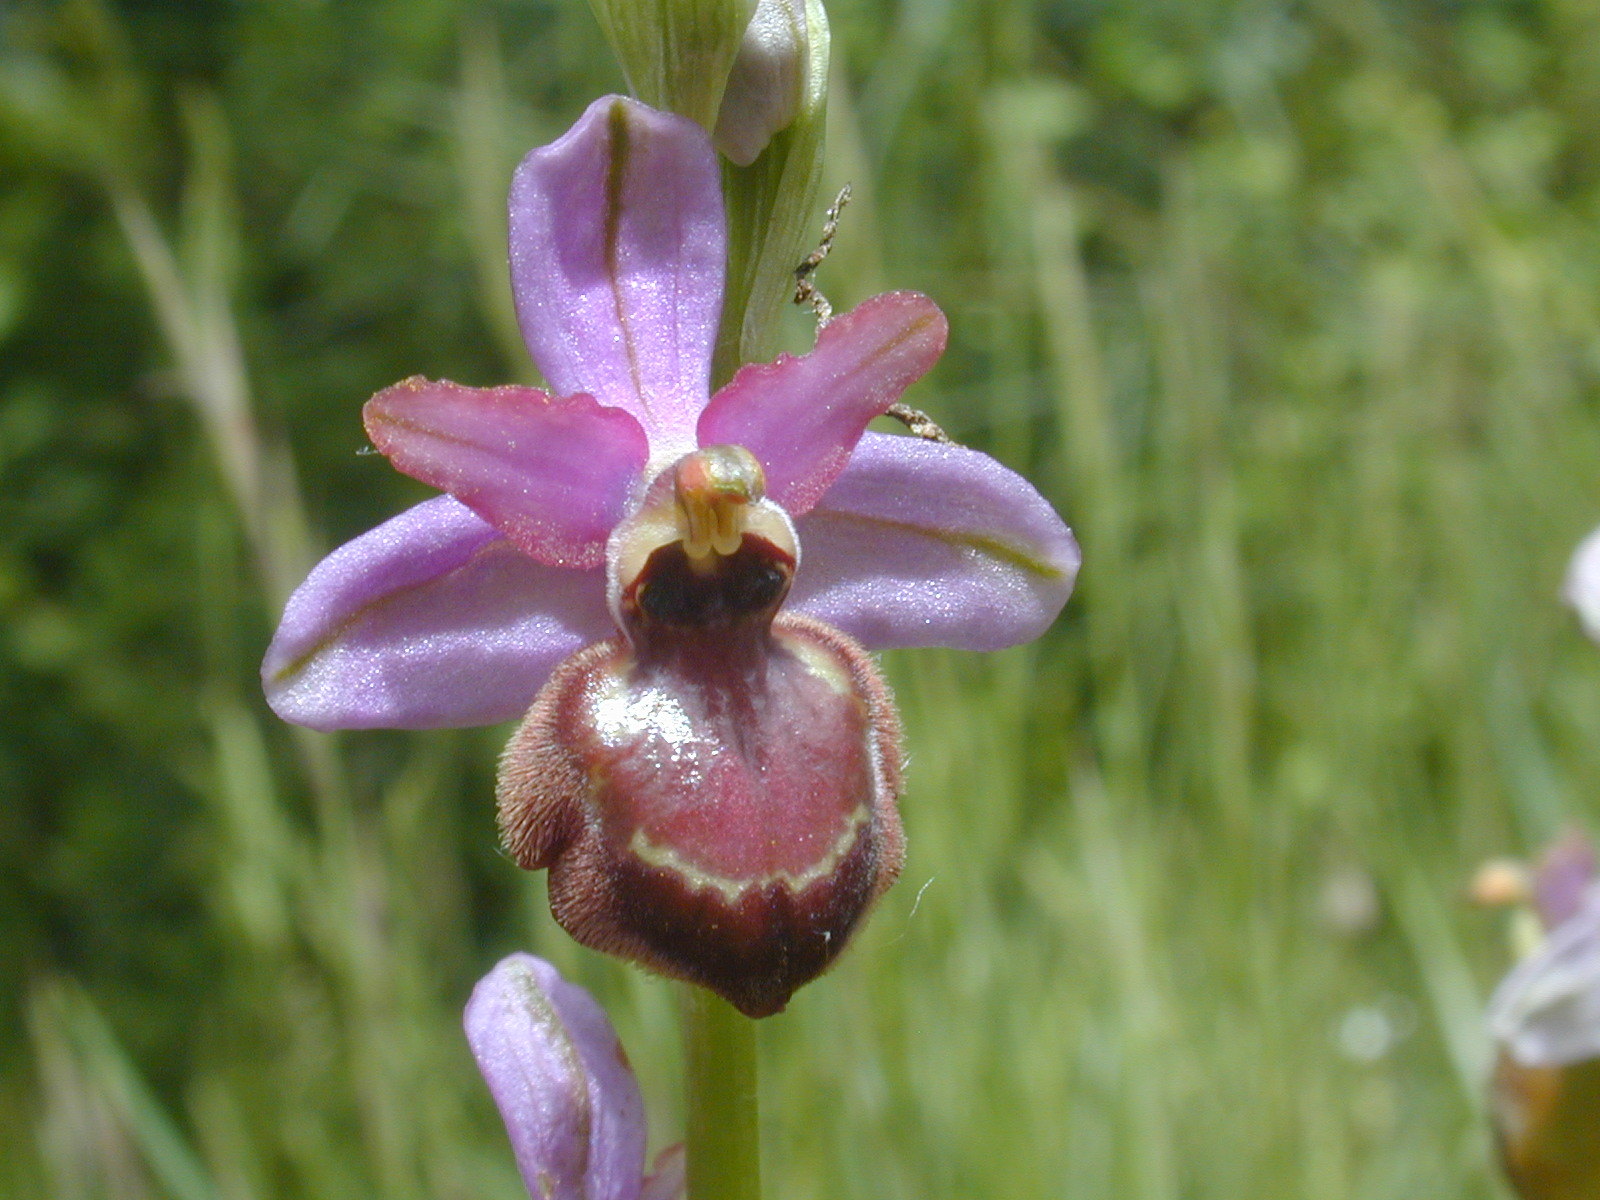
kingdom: Plantae
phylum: Tracheophyta
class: Liliopsida
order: Asparagales
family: Orchidaceae
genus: Ophrys
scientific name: Ophrys sphegodes
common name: Early spider-orchid
